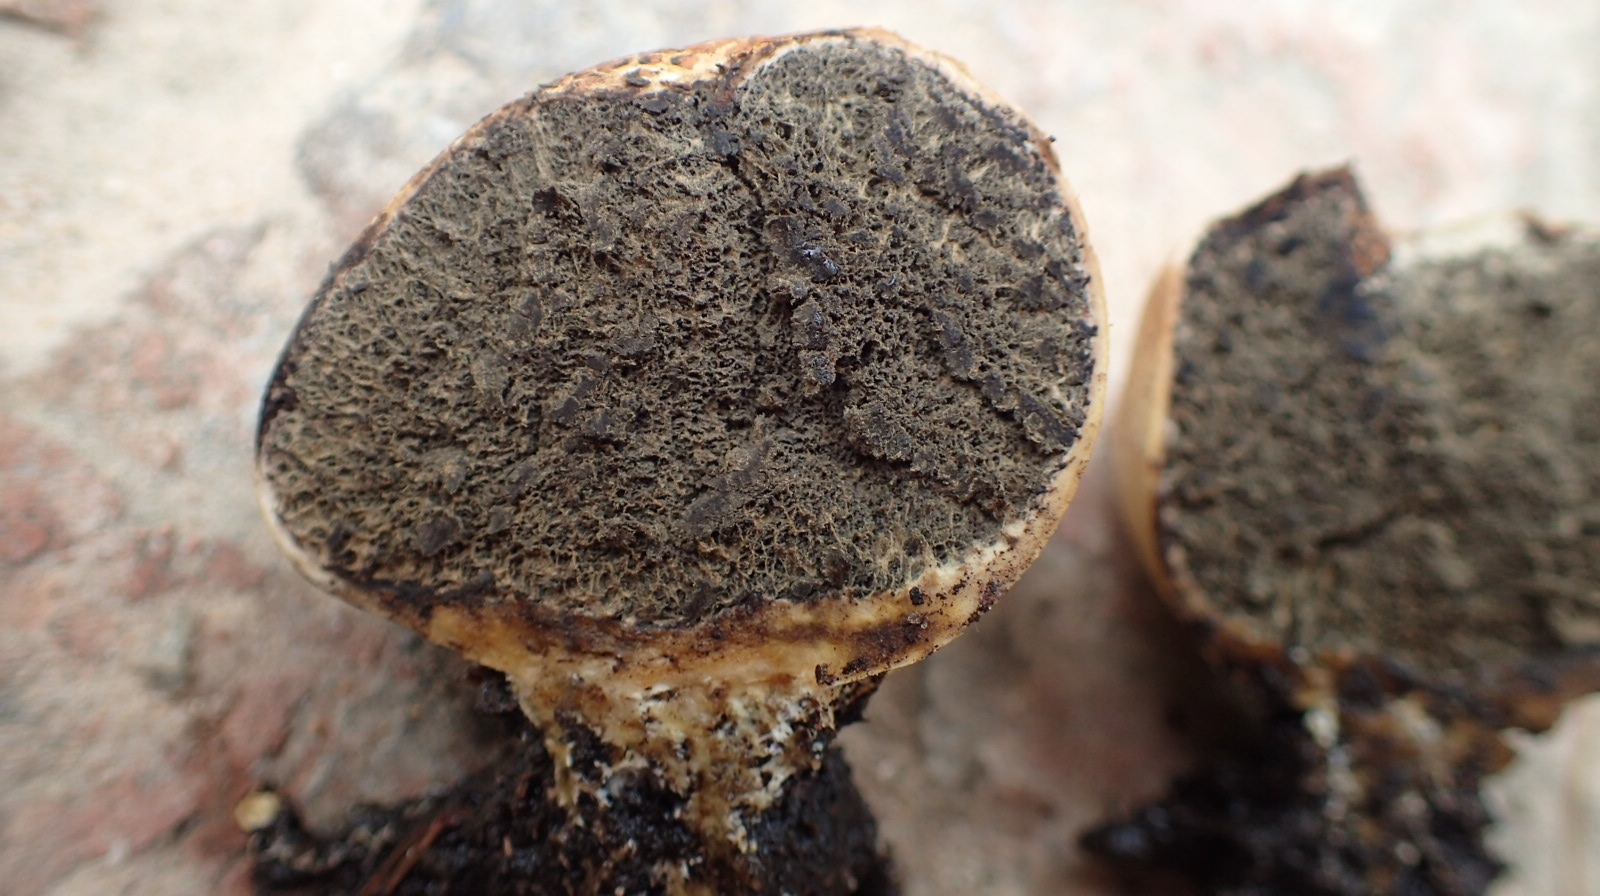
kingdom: Fungi
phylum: Basidiomycota
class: Agaricomycetes
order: Boletales
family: Sclerodermataceae
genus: Scleroderma
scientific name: Scleroderma citrinum
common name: Common earthball
